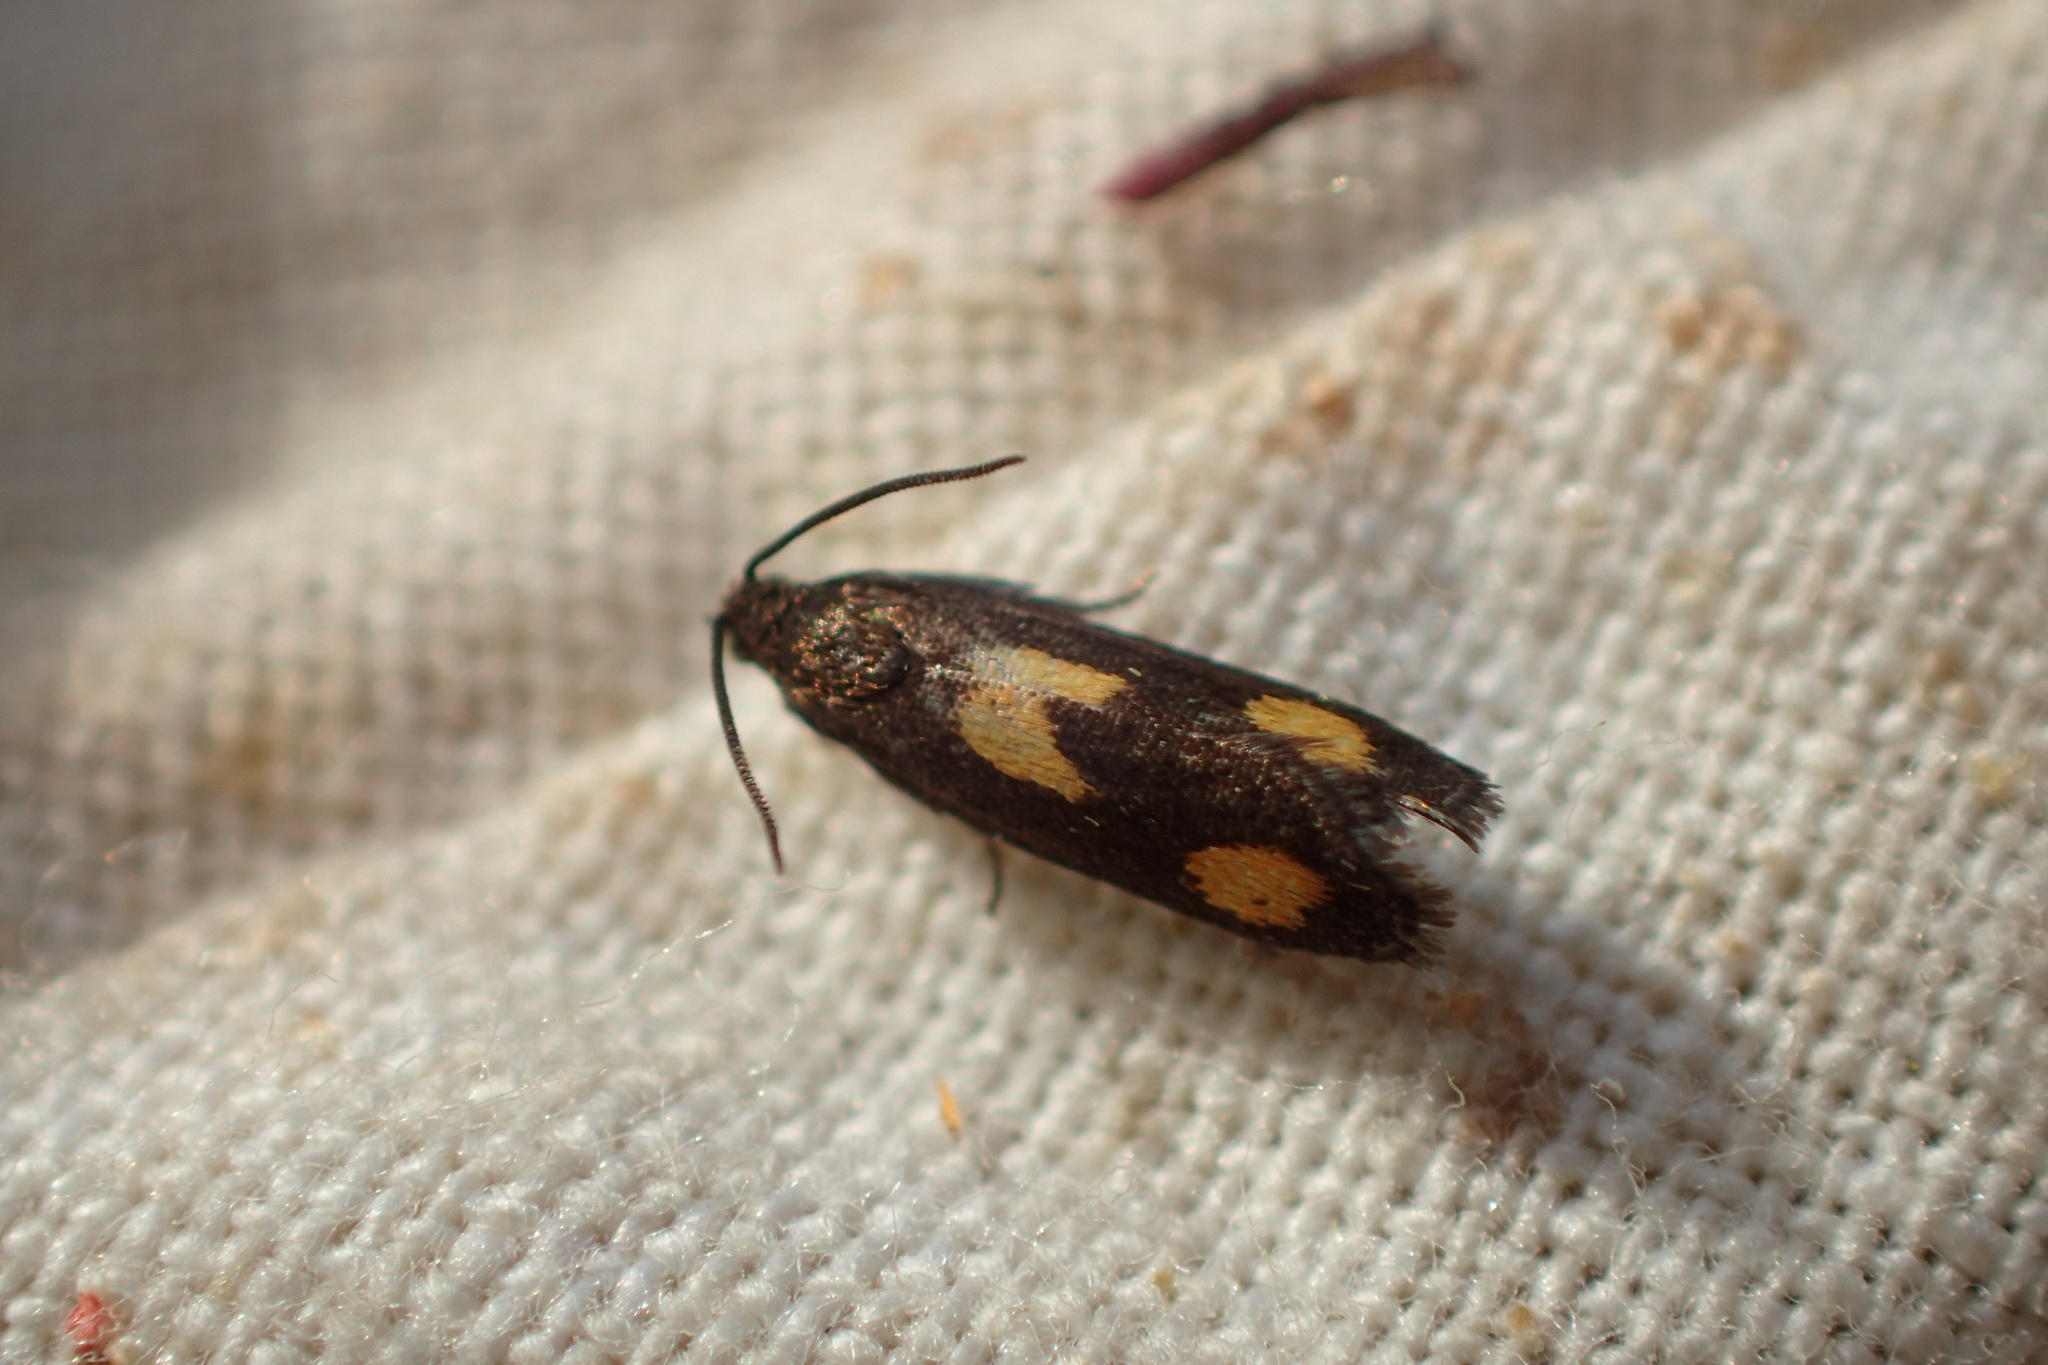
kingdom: Animalia
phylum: Arthropoda
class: Insecta
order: Lepidoptera
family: Tortricidae
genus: Pammene
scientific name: Pammene aurana
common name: Orange-spot piercer
